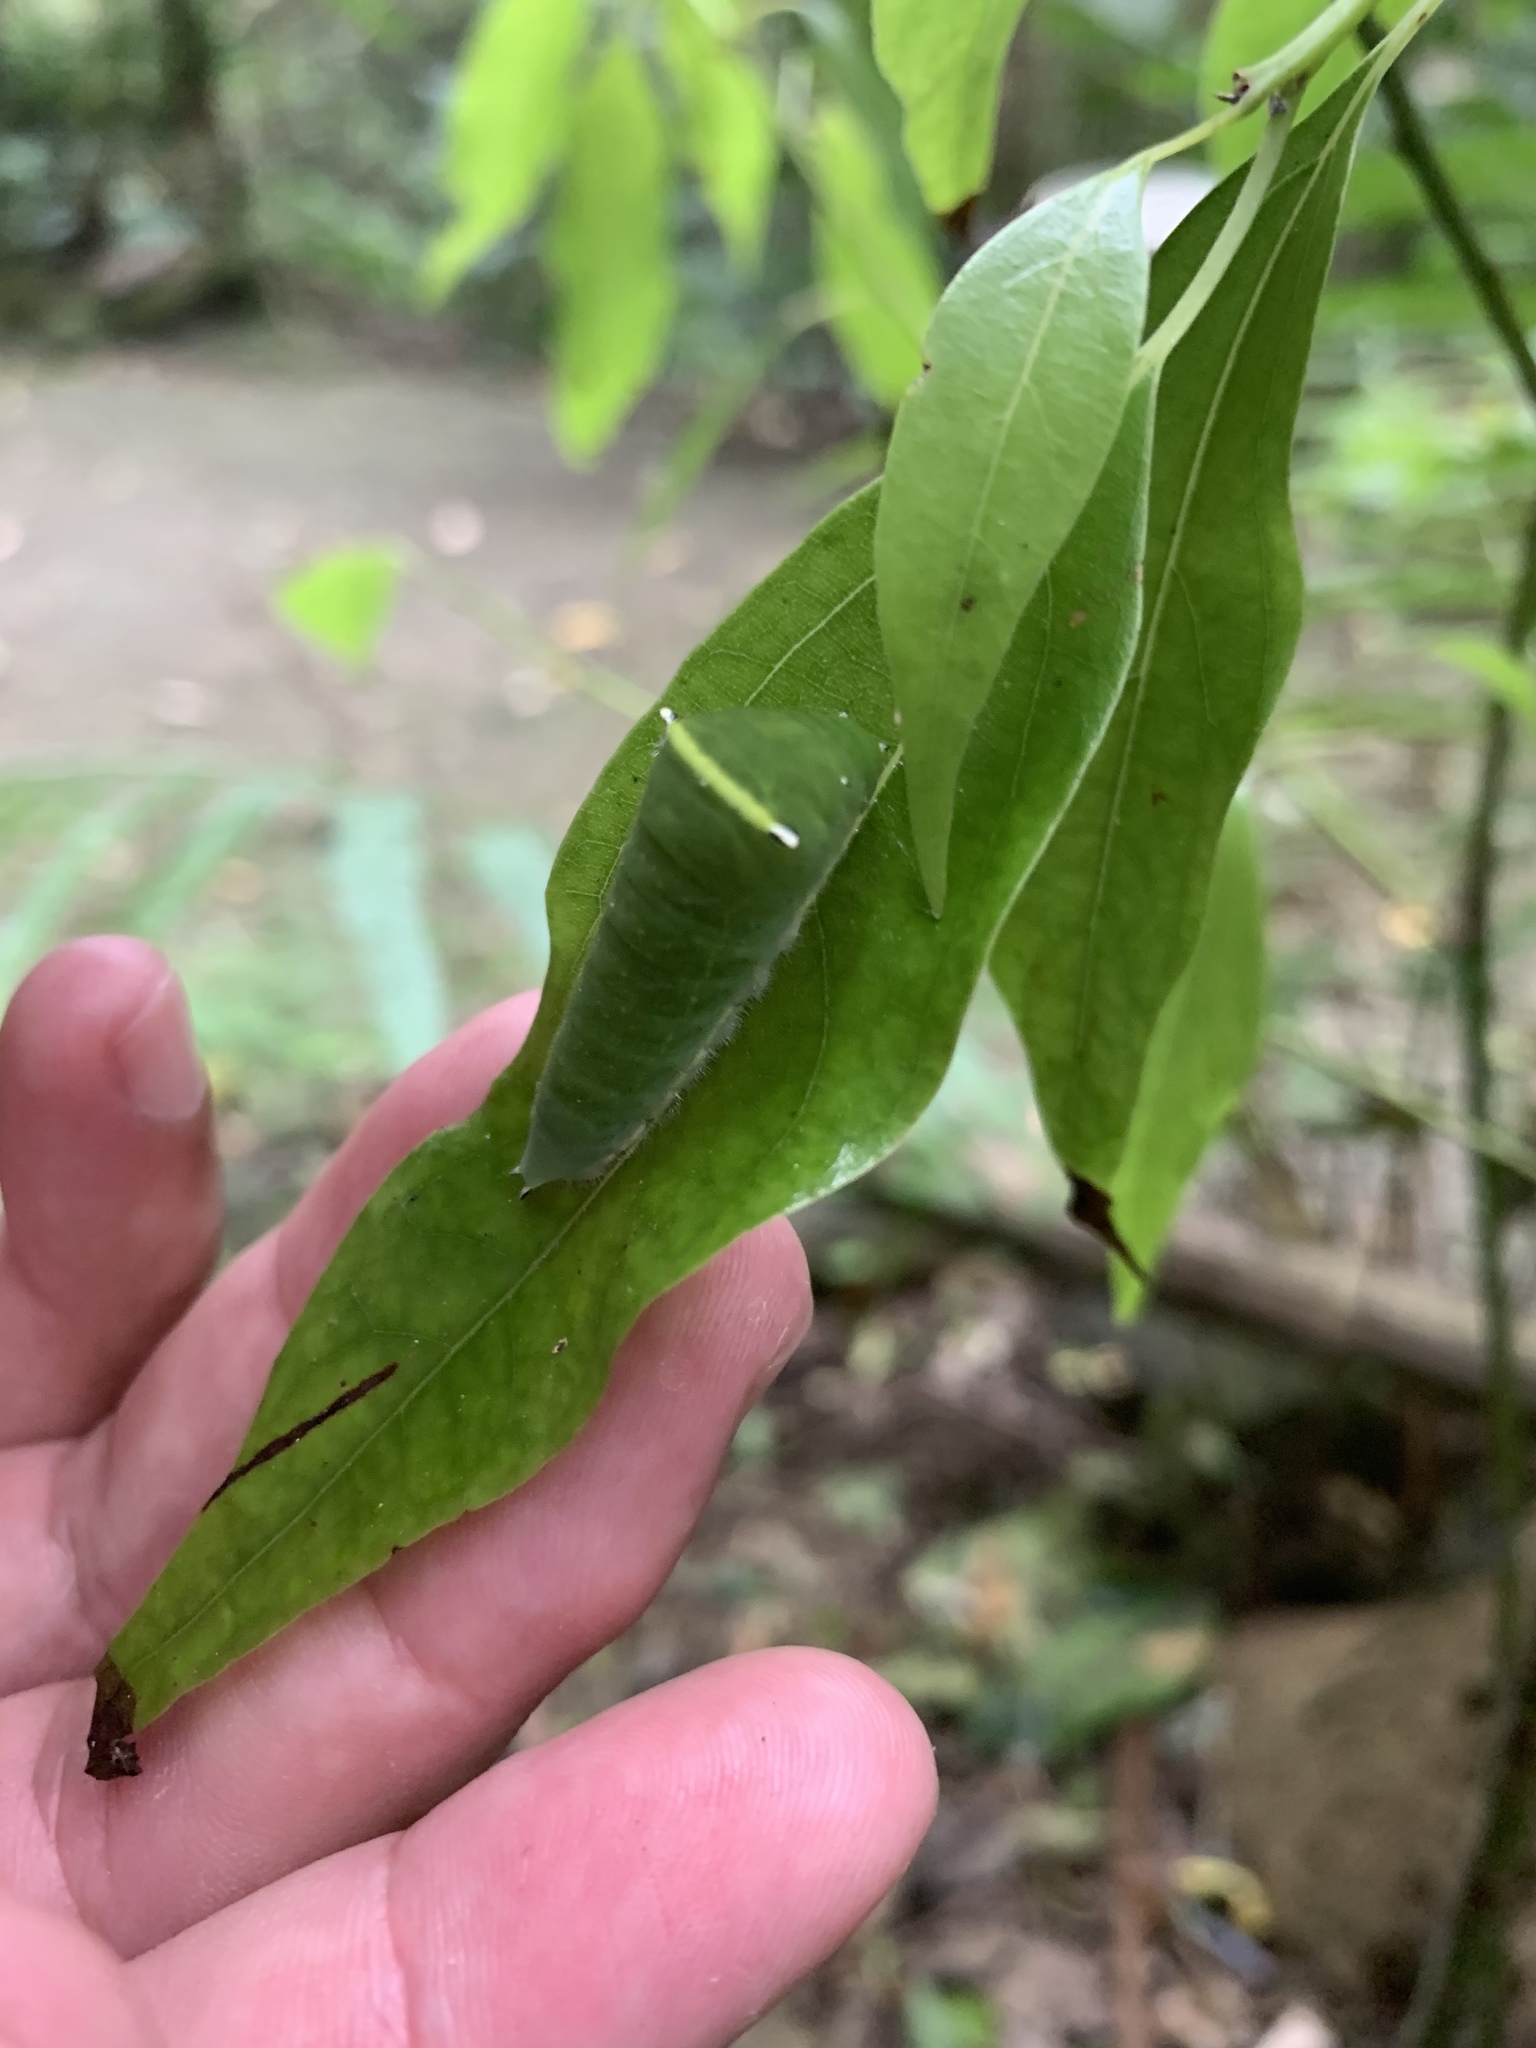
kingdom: Fungi
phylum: Ascomycota
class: Sordariomycetes
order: Microascales
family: Microascaceae
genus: Graphium
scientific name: Graphium sarpedon
